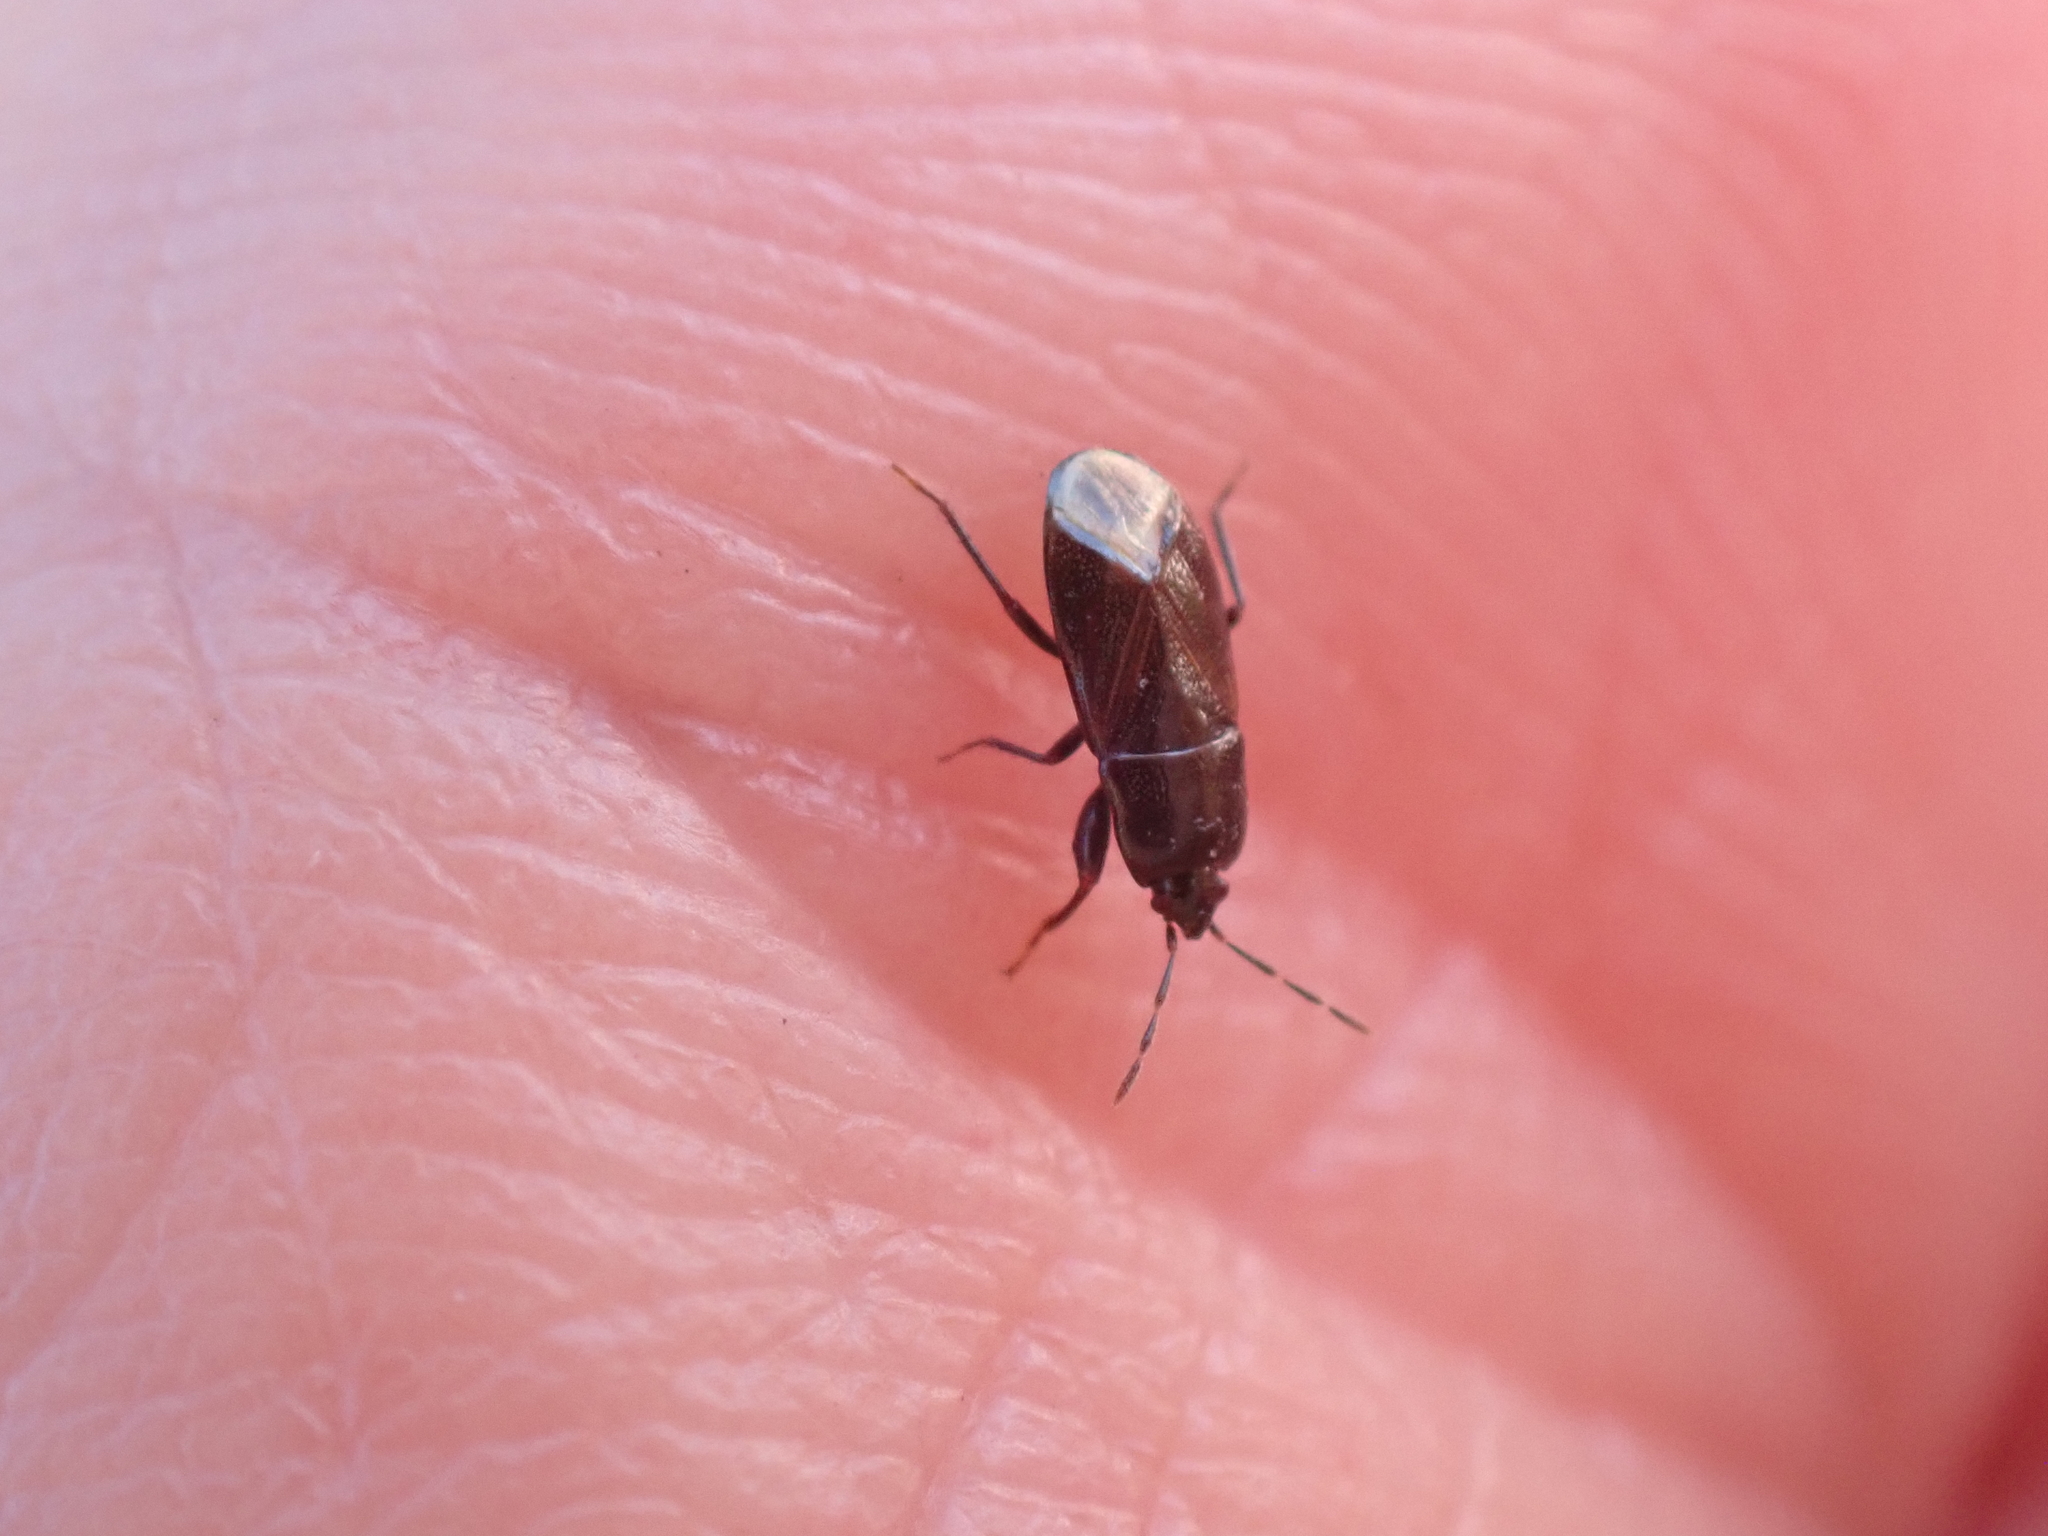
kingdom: Animalia
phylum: Arthropoda
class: Insecta
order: Hemiptera
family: Rhyparochromidae
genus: Plinthisus
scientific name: Plinthisus brevipennis
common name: Seed bug
